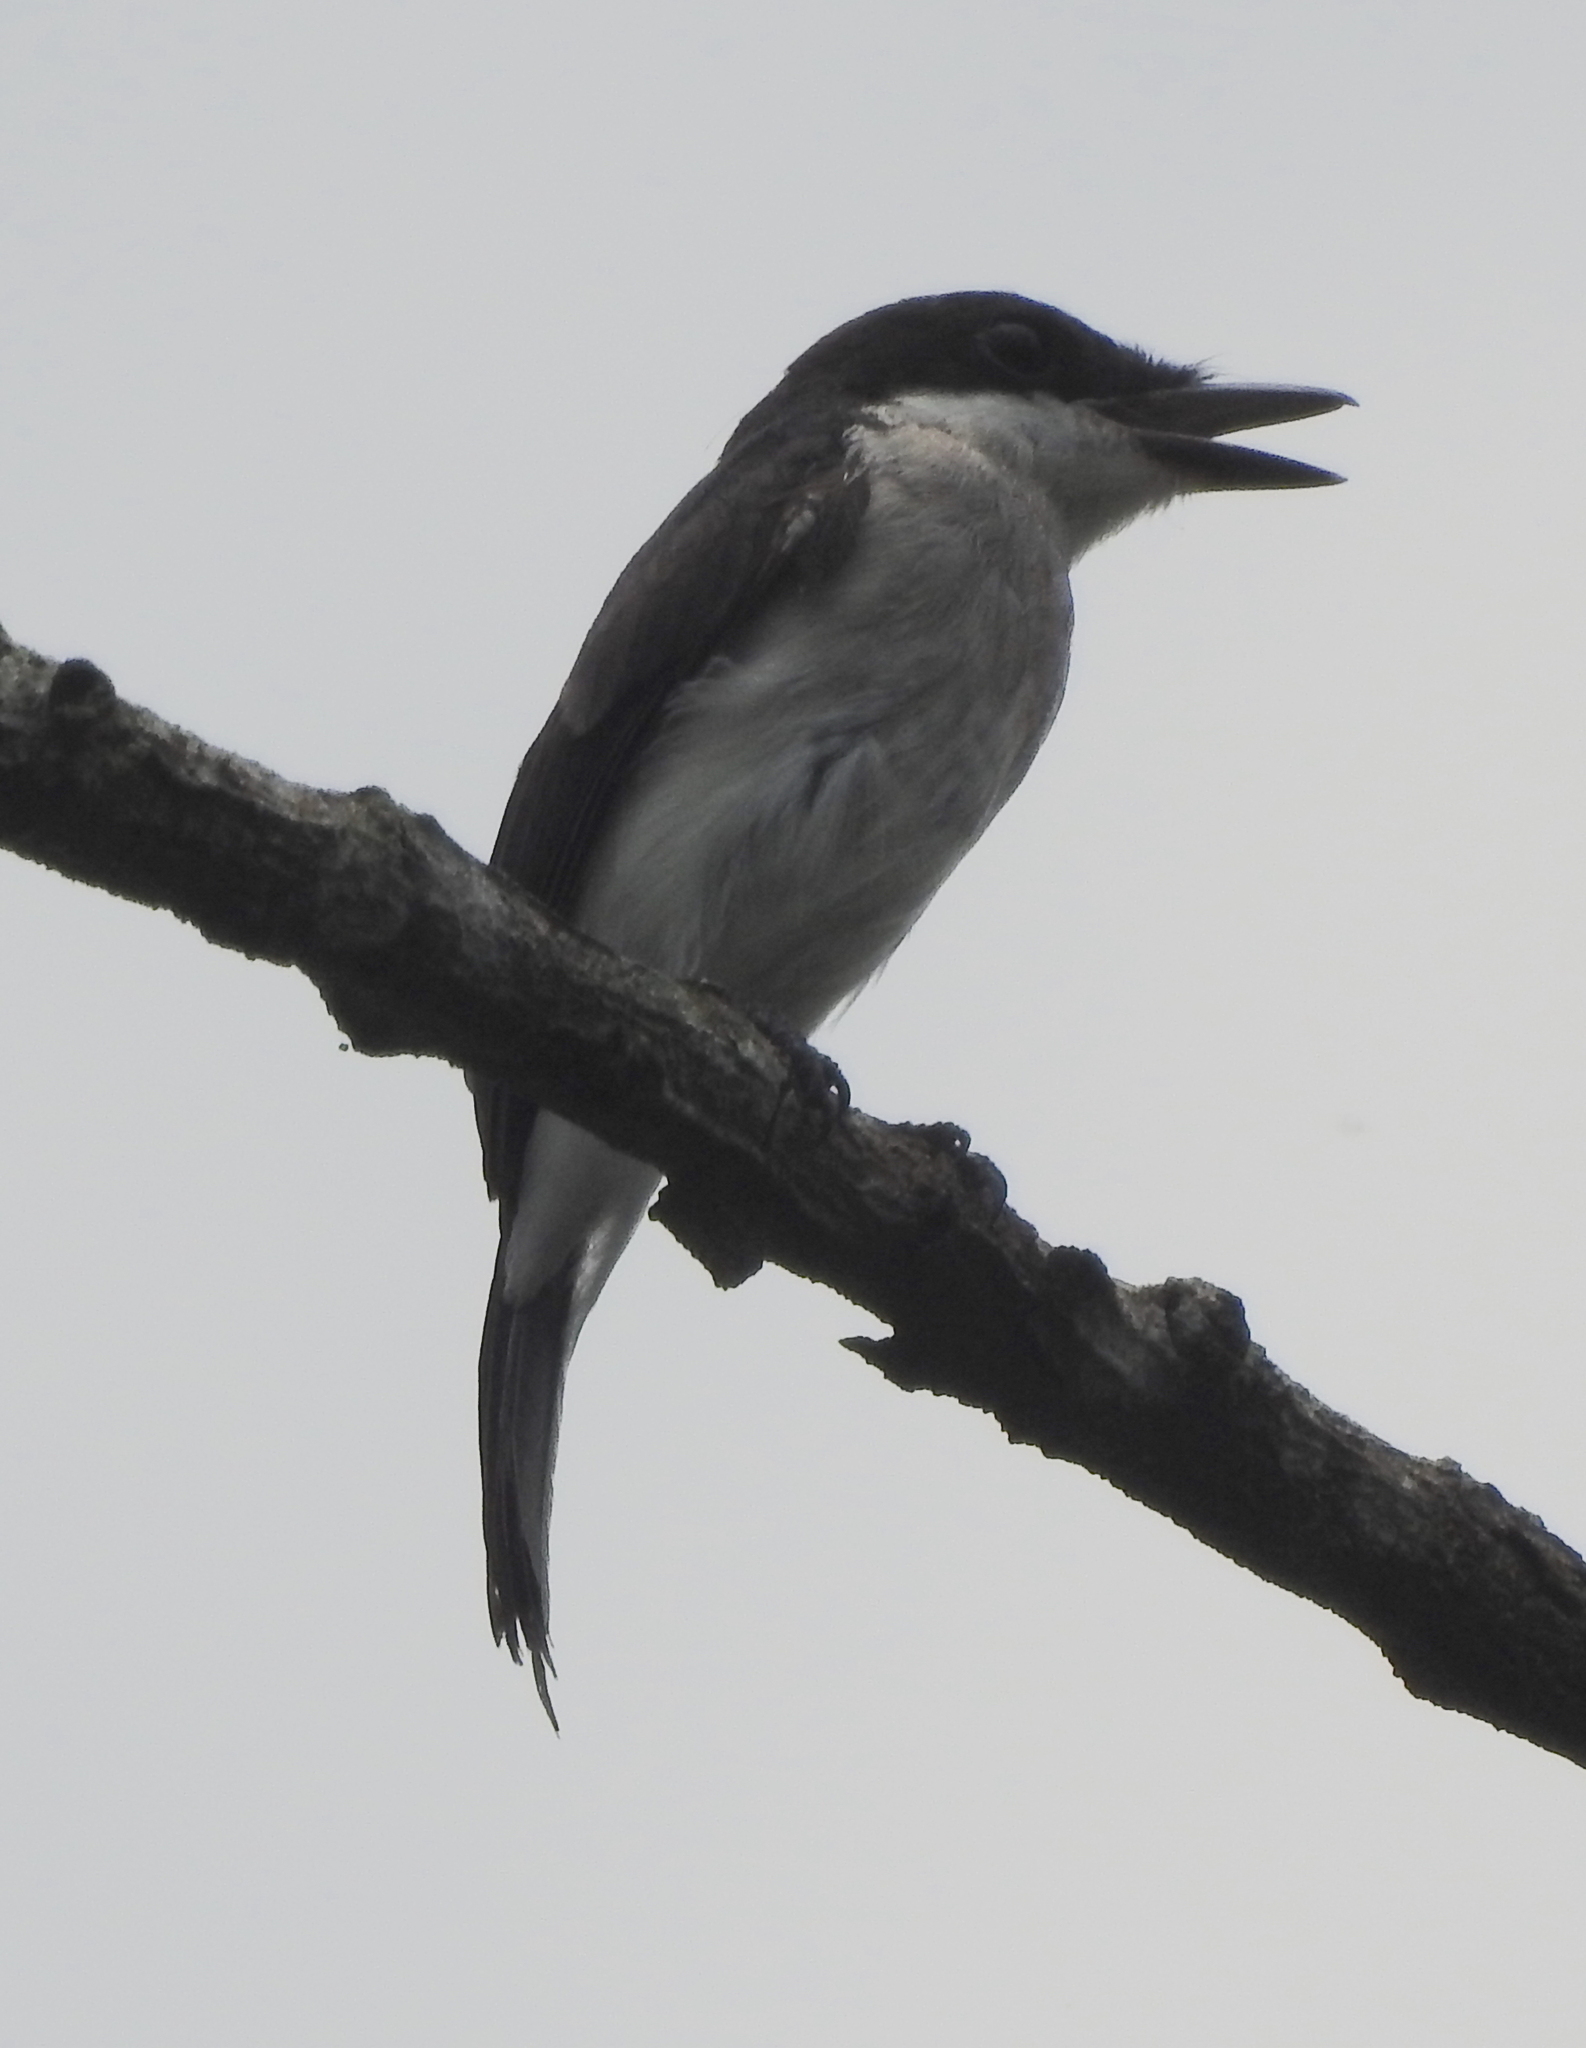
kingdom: Animalia
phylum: Chordata
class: Aves
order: Passeriformes
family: Tephrodornithidae
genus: Hemipus
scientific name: Hemipus hirundinaceus
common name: Black-winged flycatcher-shrike
